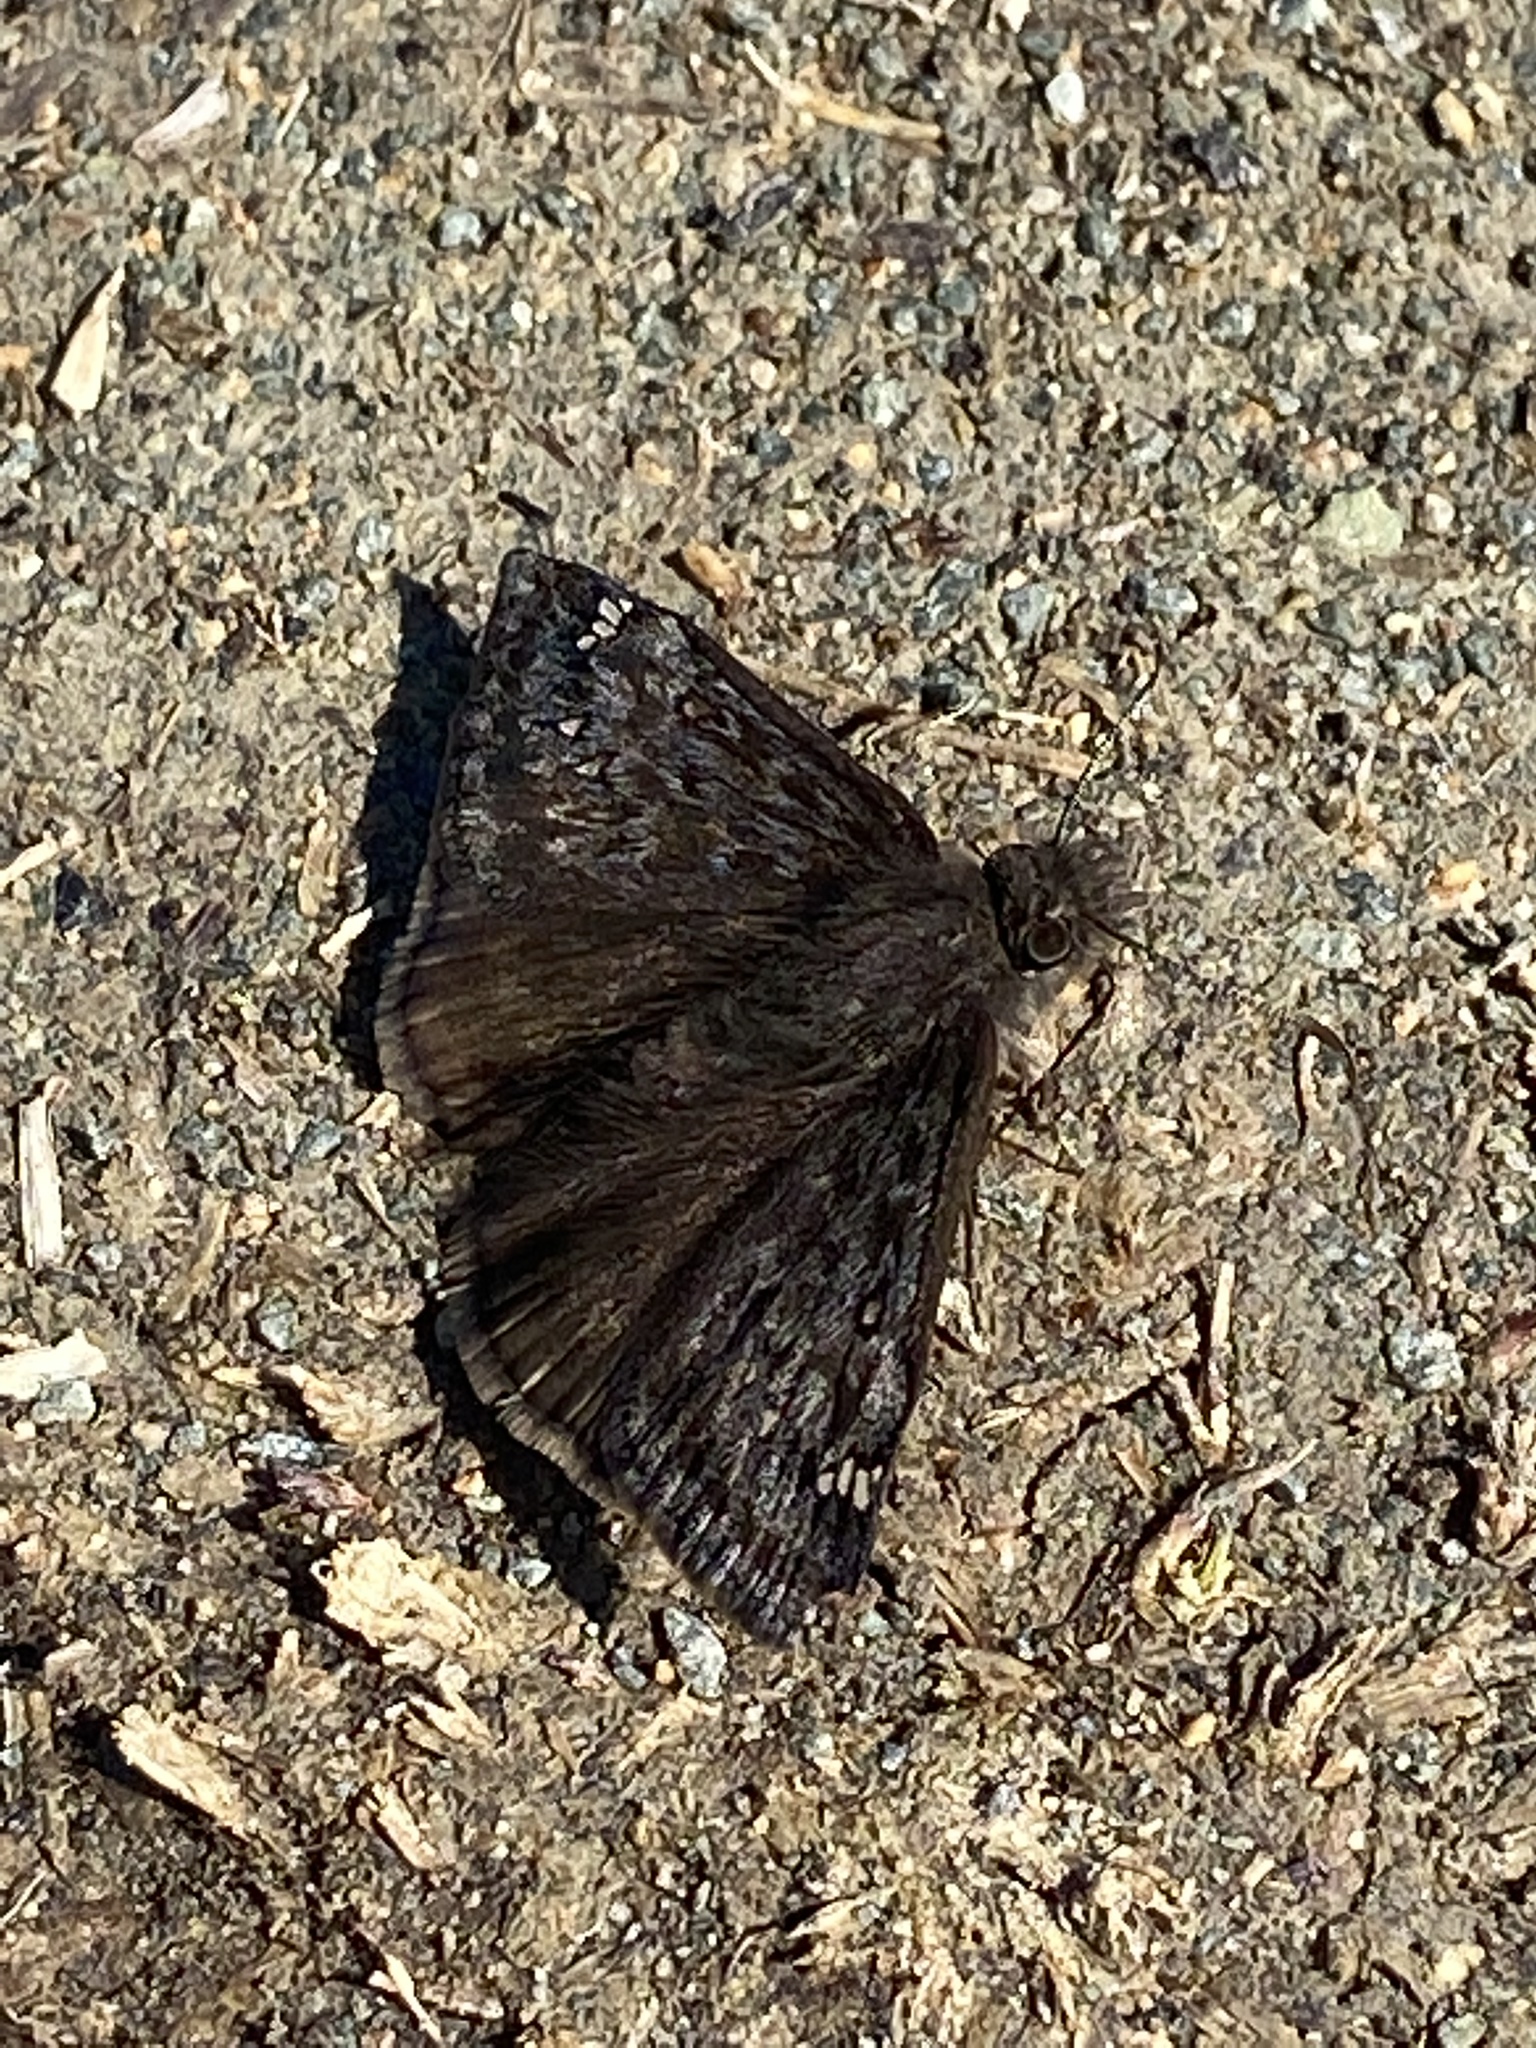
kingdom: Animalia
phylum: Arthropoda
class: Insecta
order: Lepidoptera
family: Hesperiidae
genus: Erynnis
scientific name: Erynnis juvenalis
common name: Juvenal's duskywing
